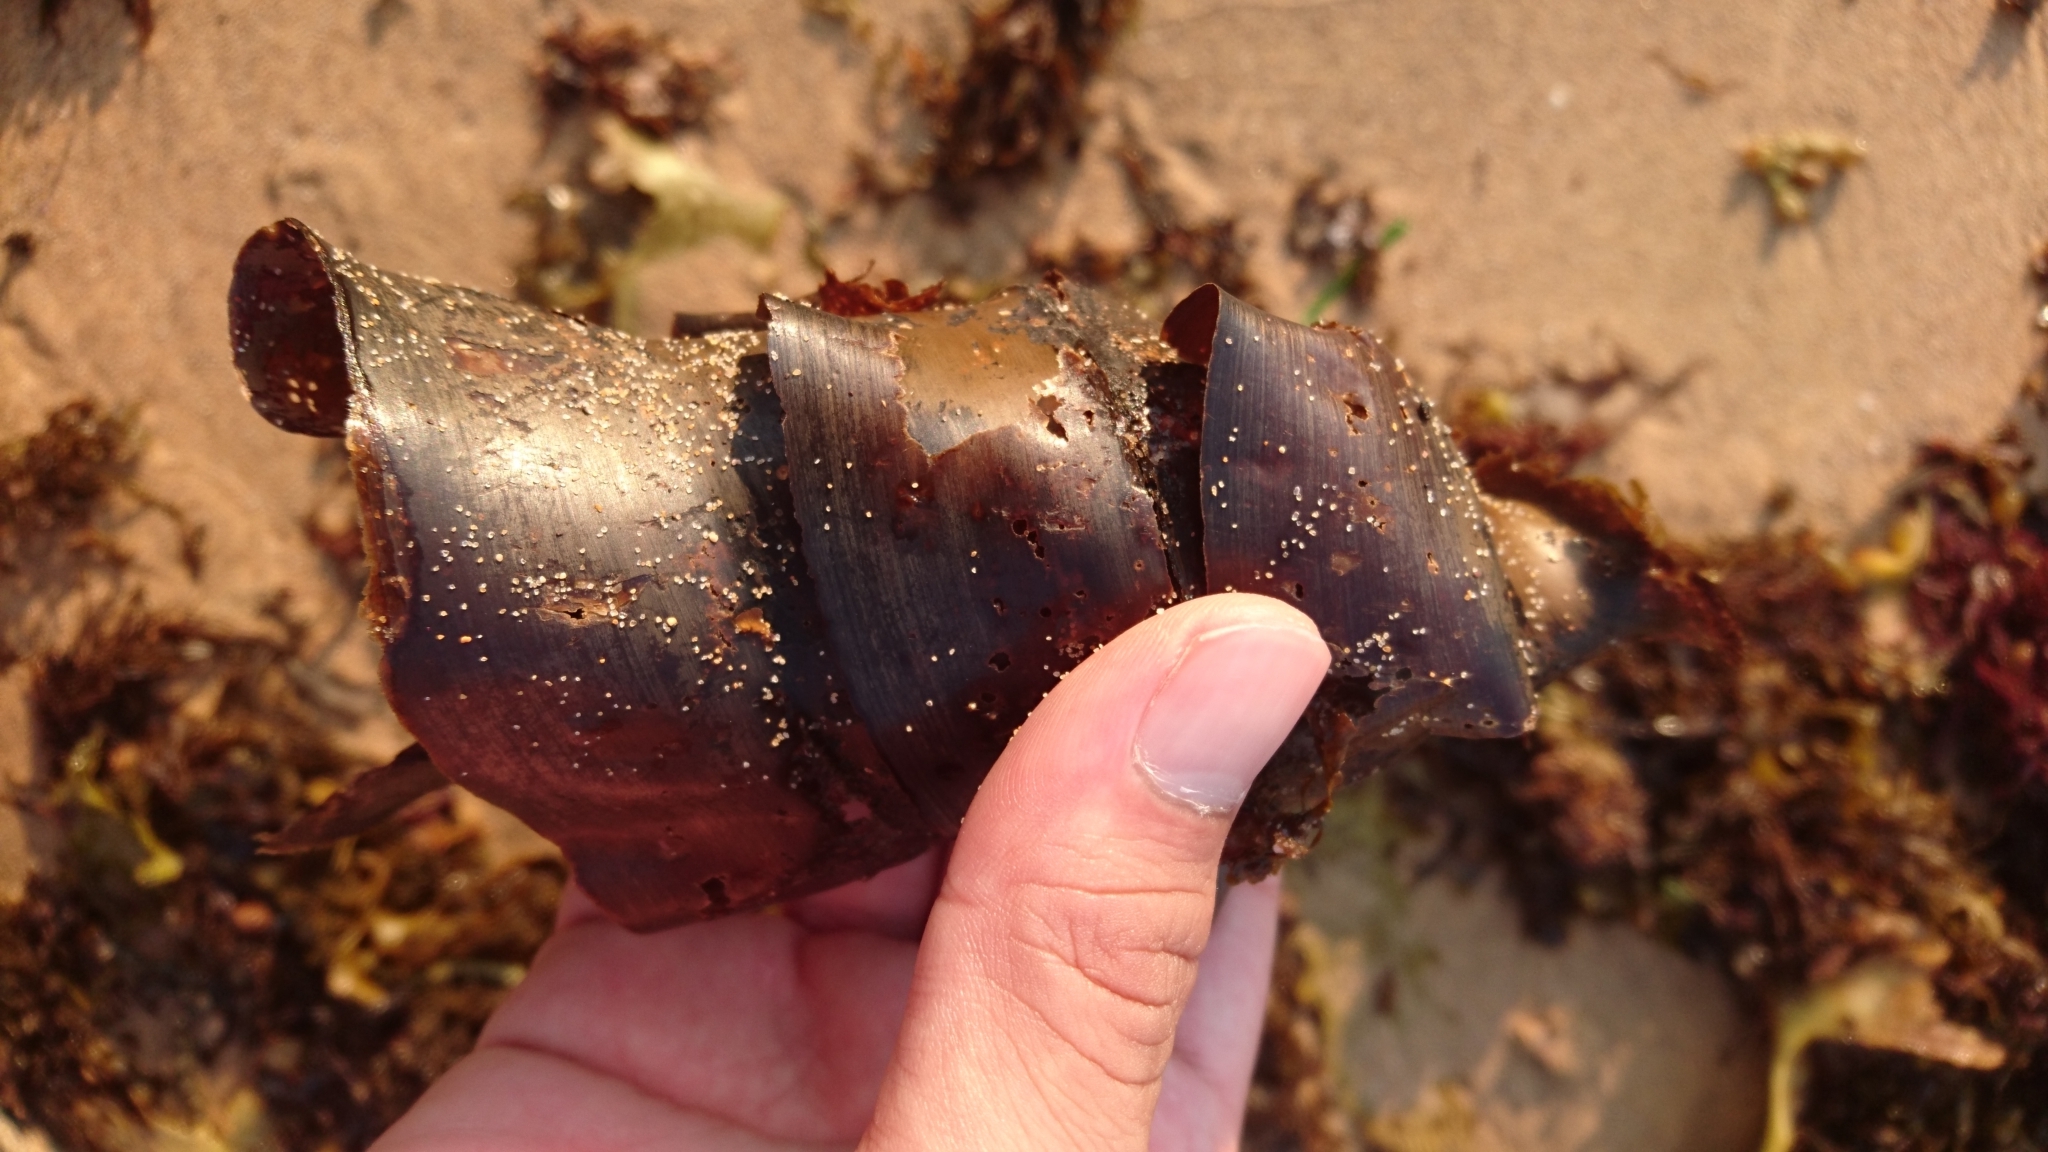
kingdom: Animalia
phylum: Chordata
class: Elasmobranchii
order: Heterodontiformes
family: Heterodontidae
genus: Heterodontus
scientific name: Heterodontus portusjacksoni
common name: Port jackson shark
